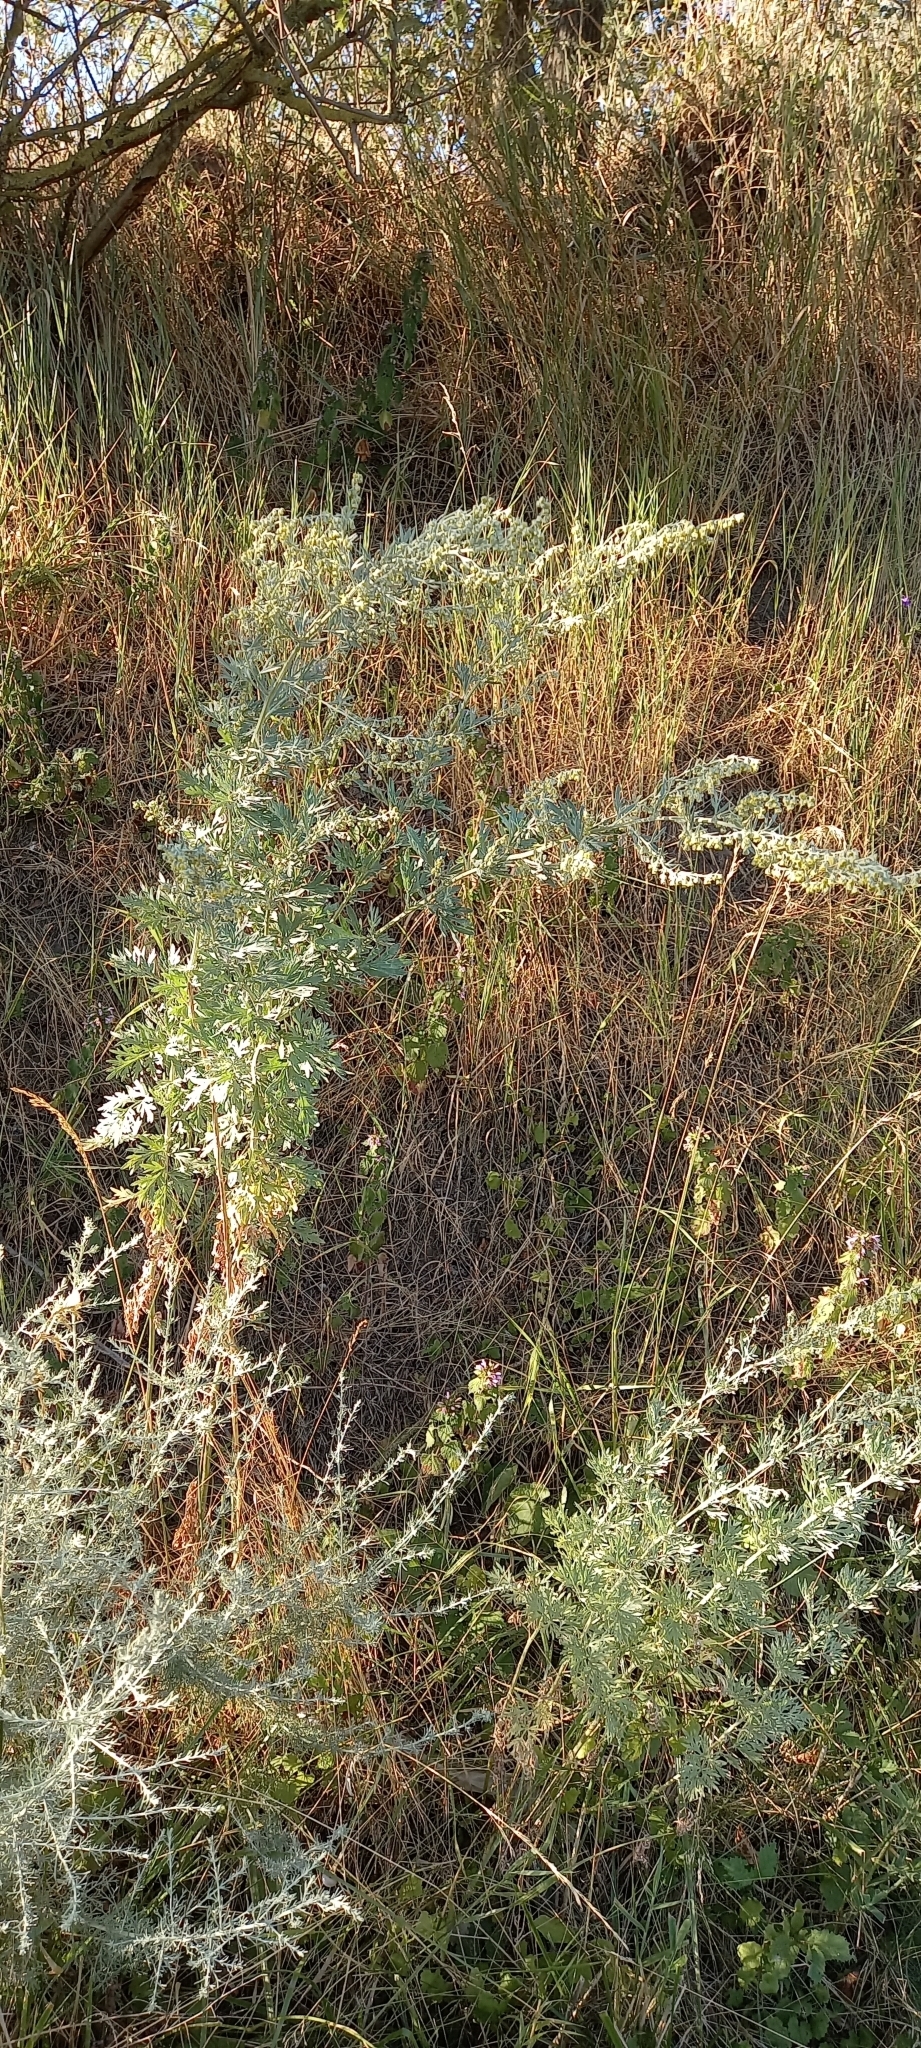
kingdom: Plantae
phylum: Tracheophyta
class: Magnoliopsida
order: Asterales
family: Asteraceae
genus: Artemisia
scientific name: Artemisia absinthium
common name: Wormwood
